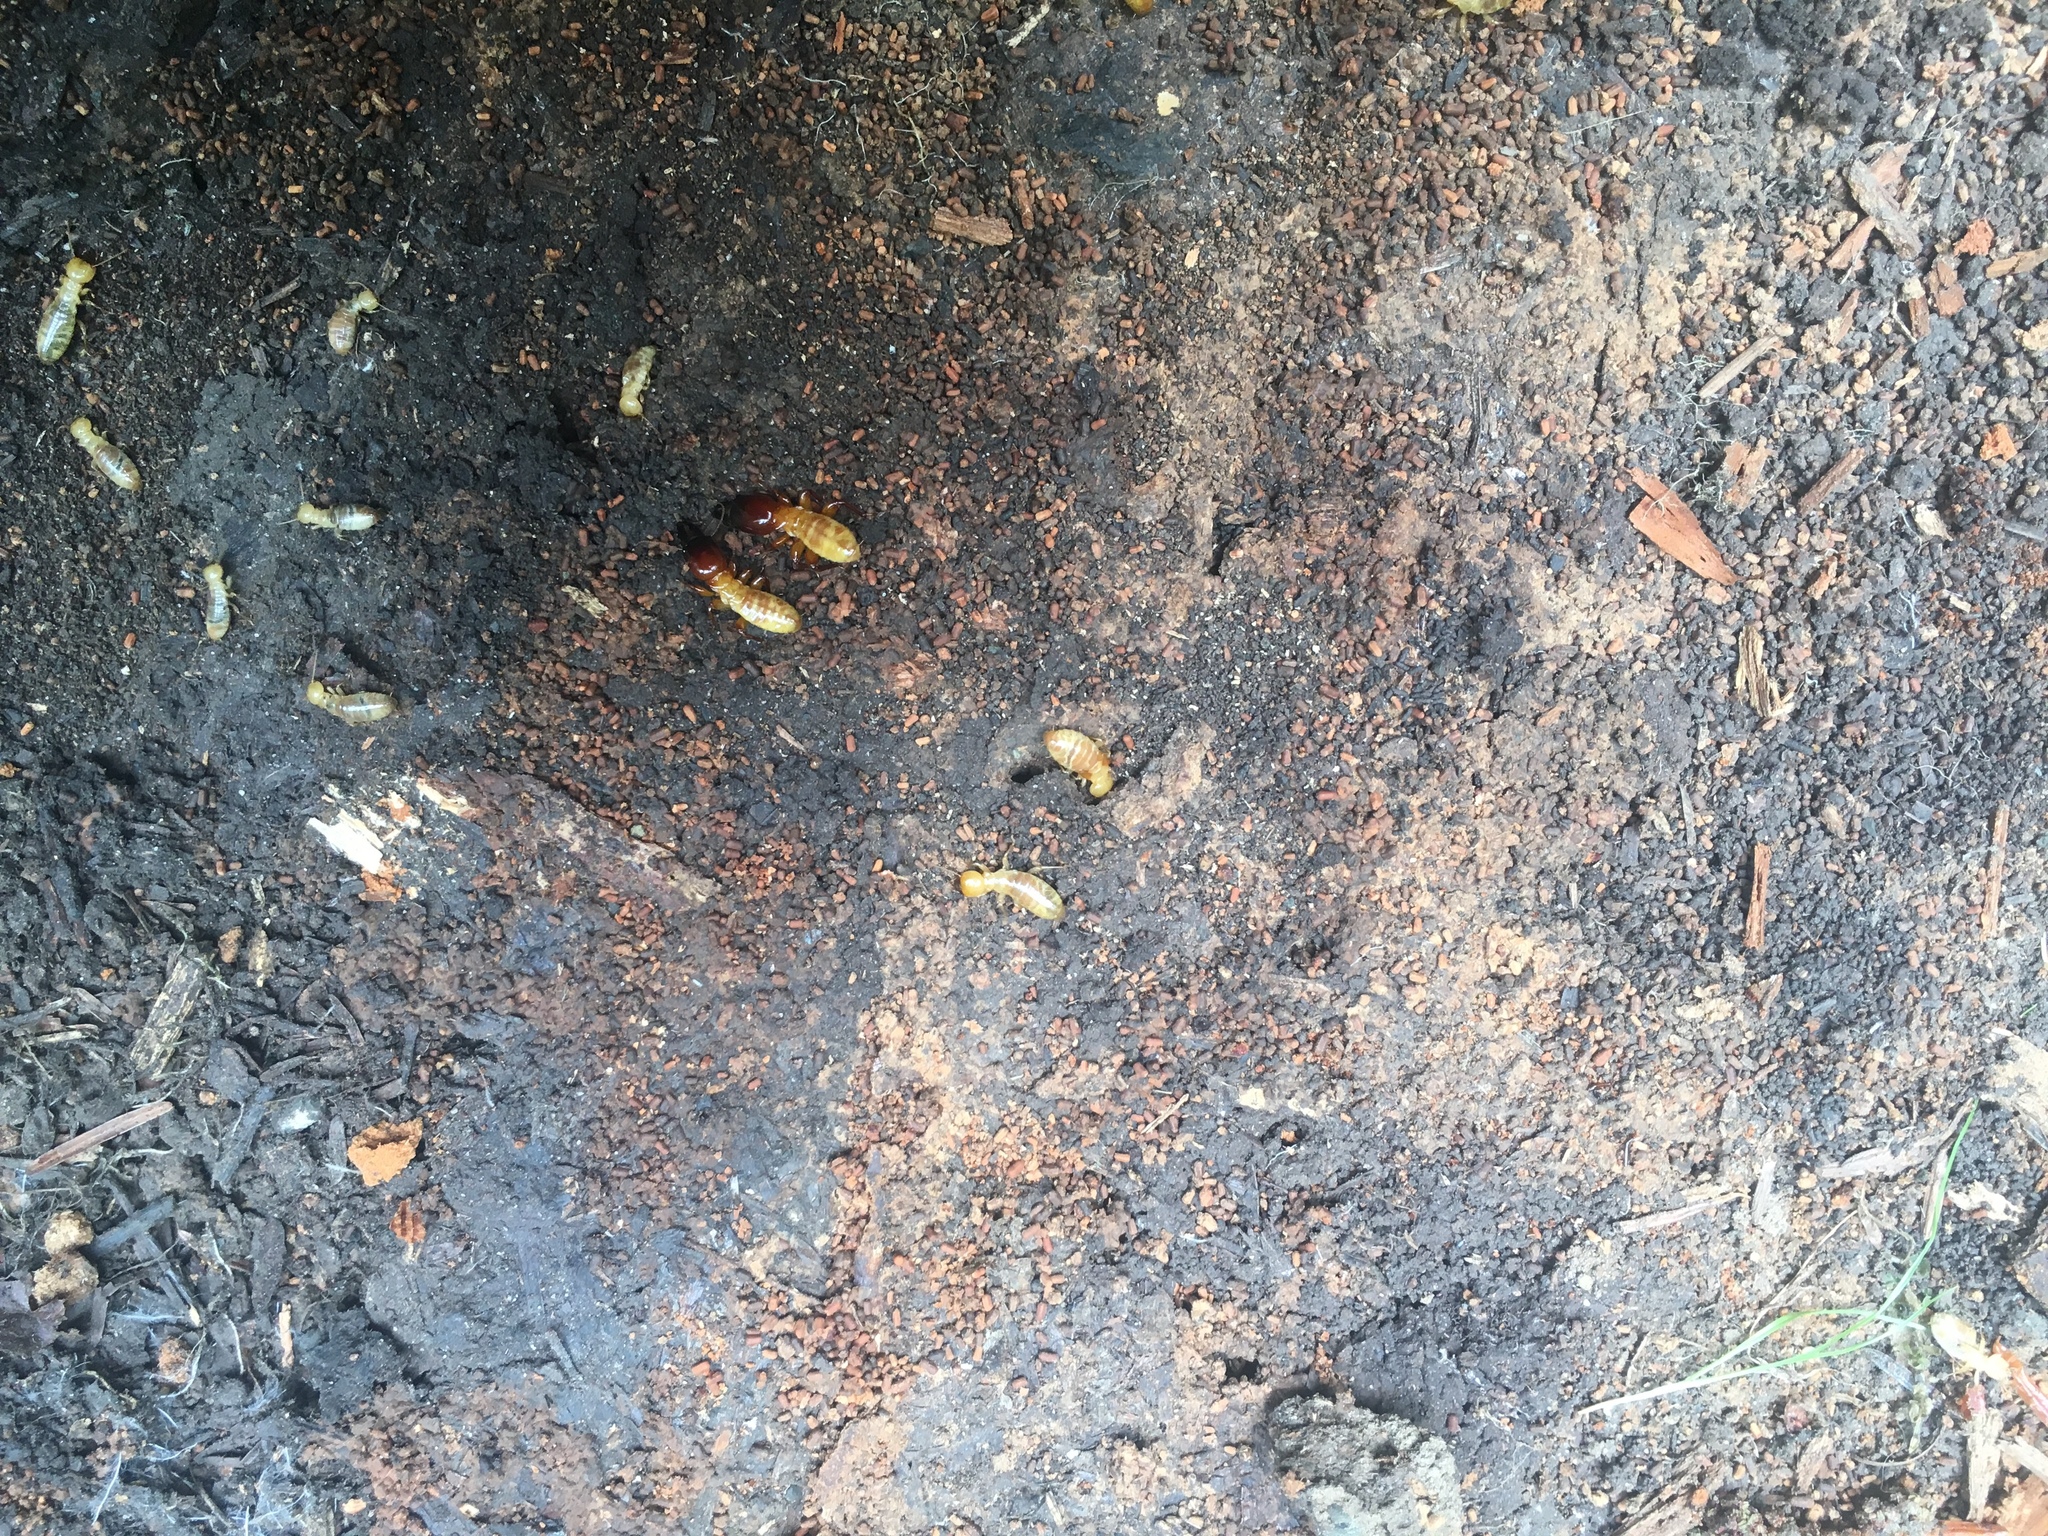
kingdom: Animalia
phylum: Arthropoda
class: Insecta
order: Blattodea
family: Archotermopsidae
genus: Zootermopsis
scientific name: Zootermopsis
